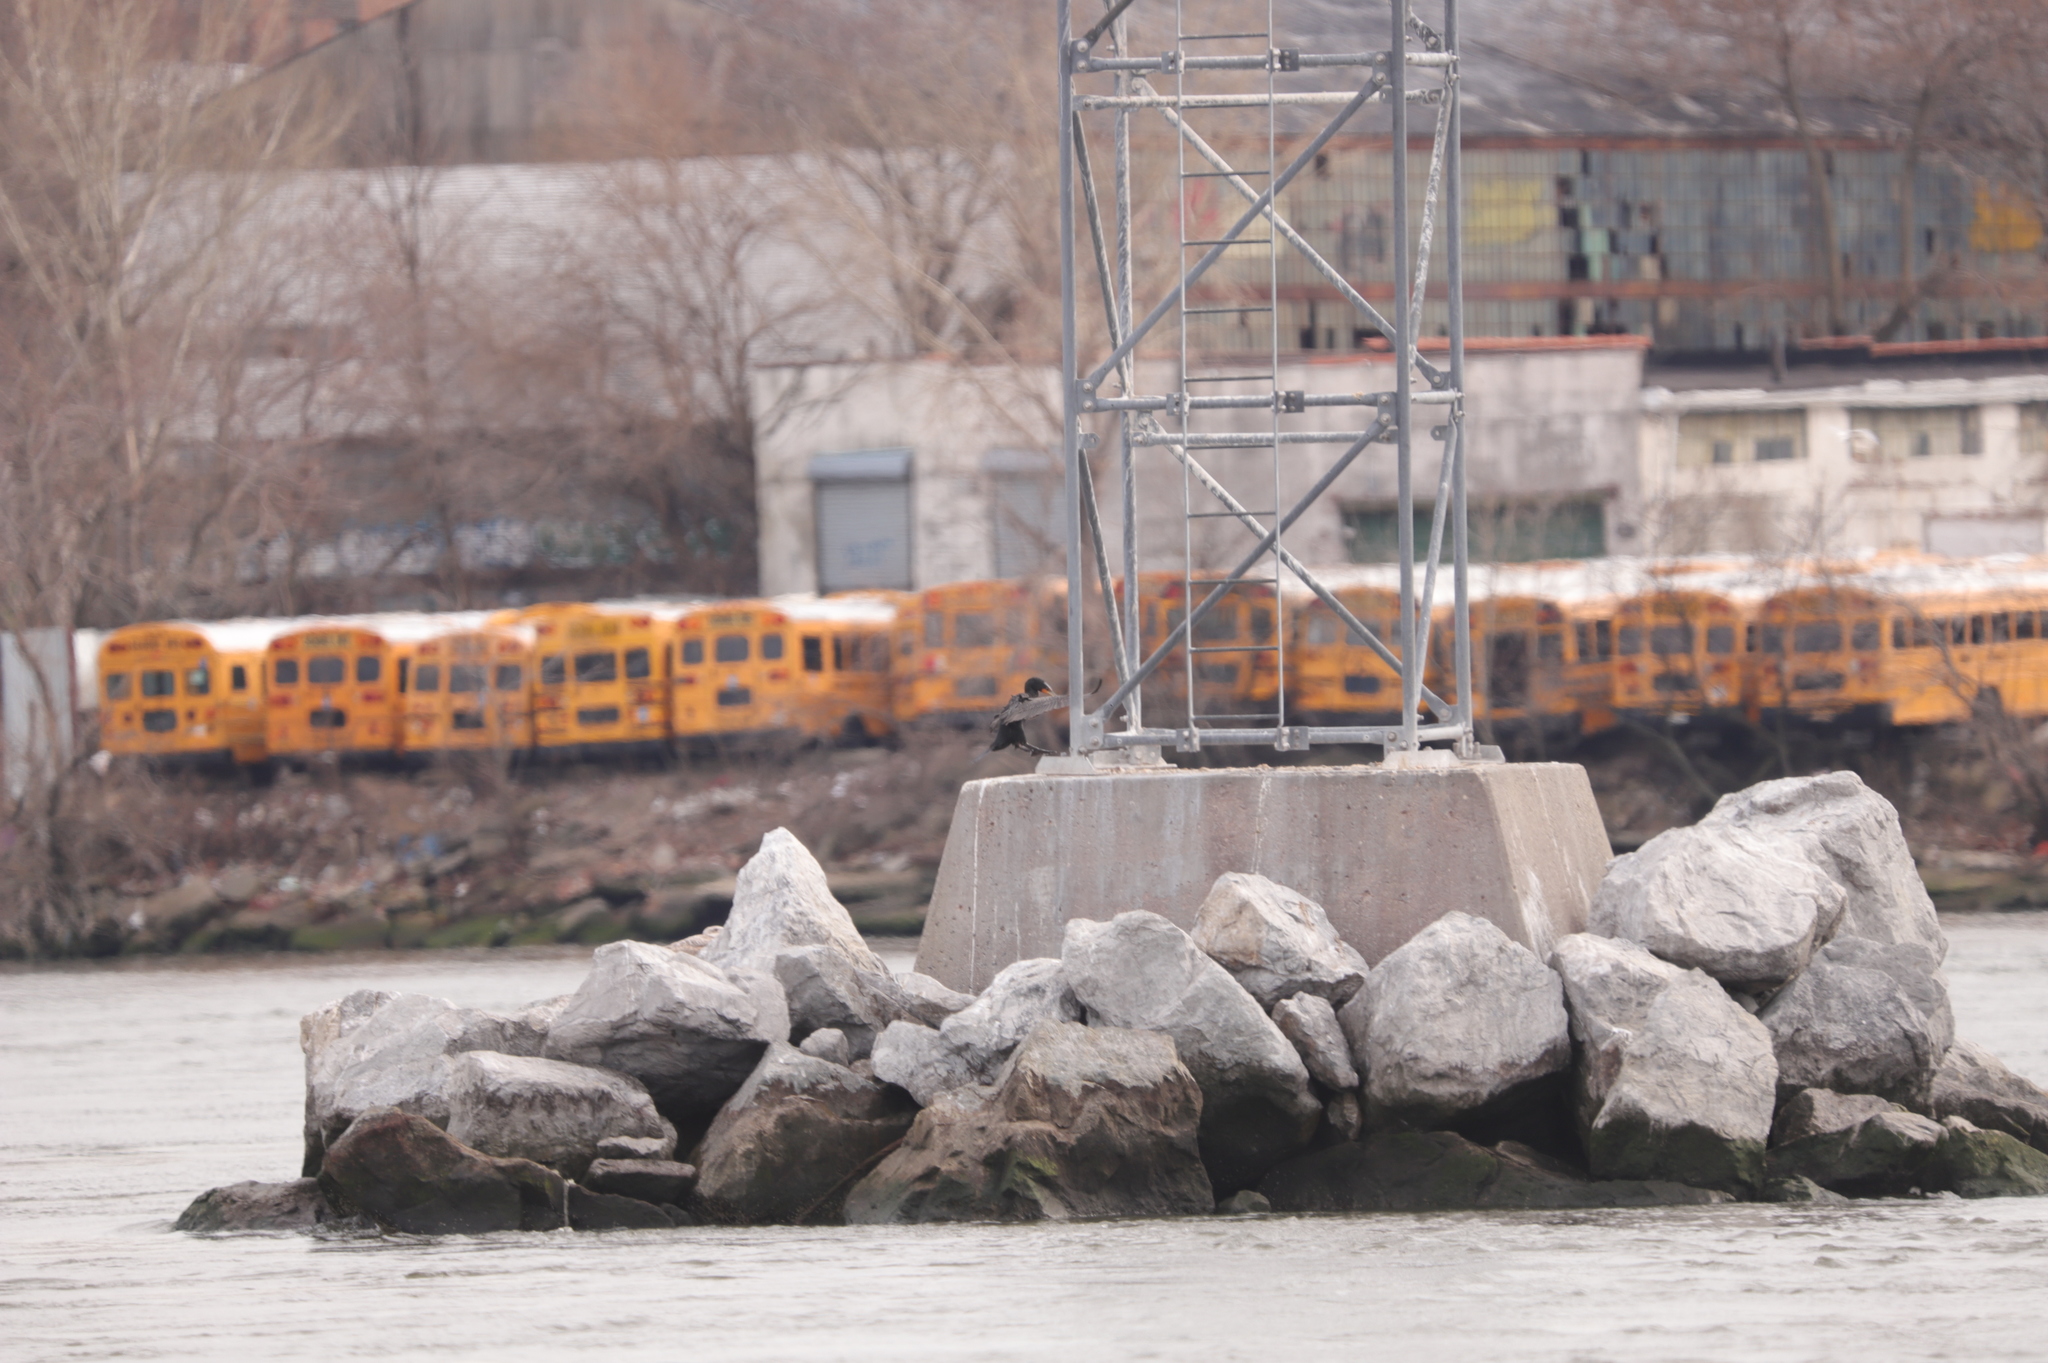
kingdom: Animalia
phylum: Chordata
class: Aves
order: Suliformes
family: Phalacrocoracidae
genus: Phalacrocorax
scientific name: Phalacrocorax auritus
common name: Double-crested cormorant
